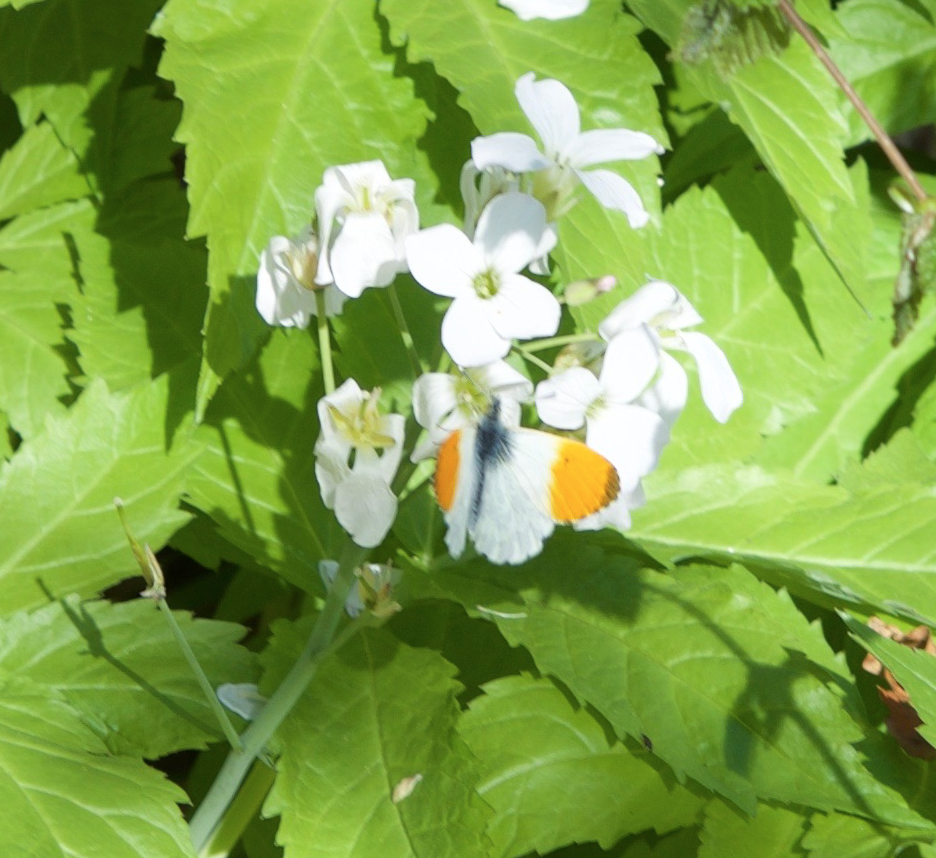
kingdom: Animalia
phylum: Arthropoda
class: Insecta
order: Lepidoptera
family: Pieridae
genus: Anthocharis
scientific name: Anthocharis cardamines
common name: Orange-tip
